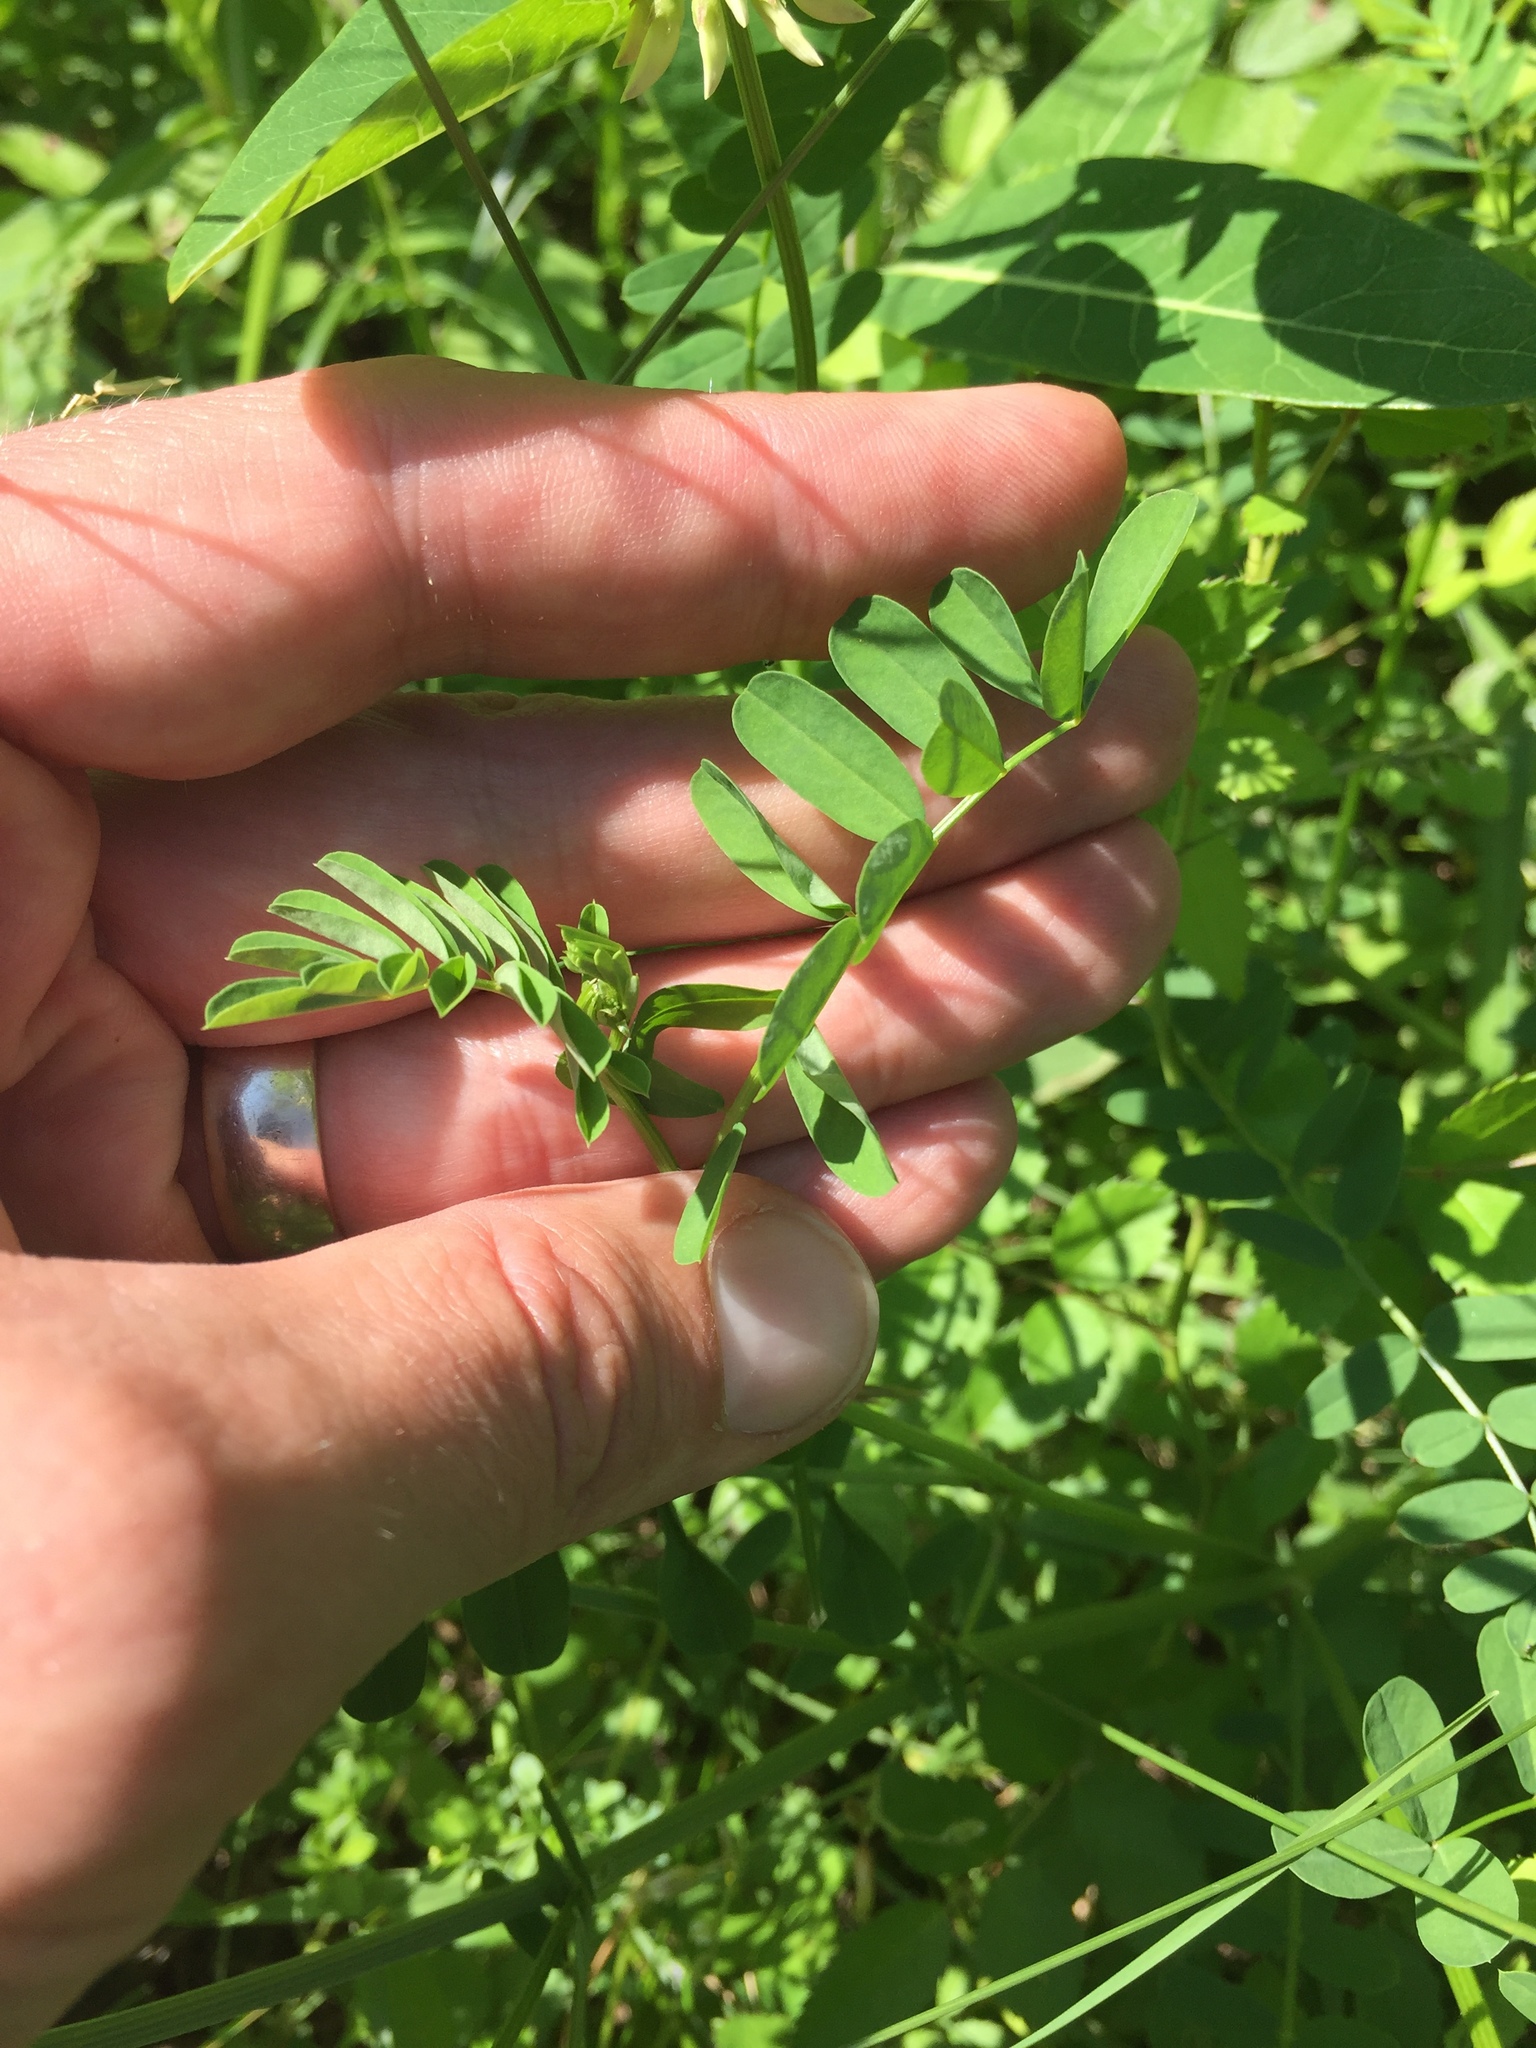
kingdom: Plantae
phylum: Tracheophyta
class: Magnoliopsida
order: Fabales
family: Fabaceae
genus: Coronilla
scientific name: Coronilla varia
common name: Crownvetch
